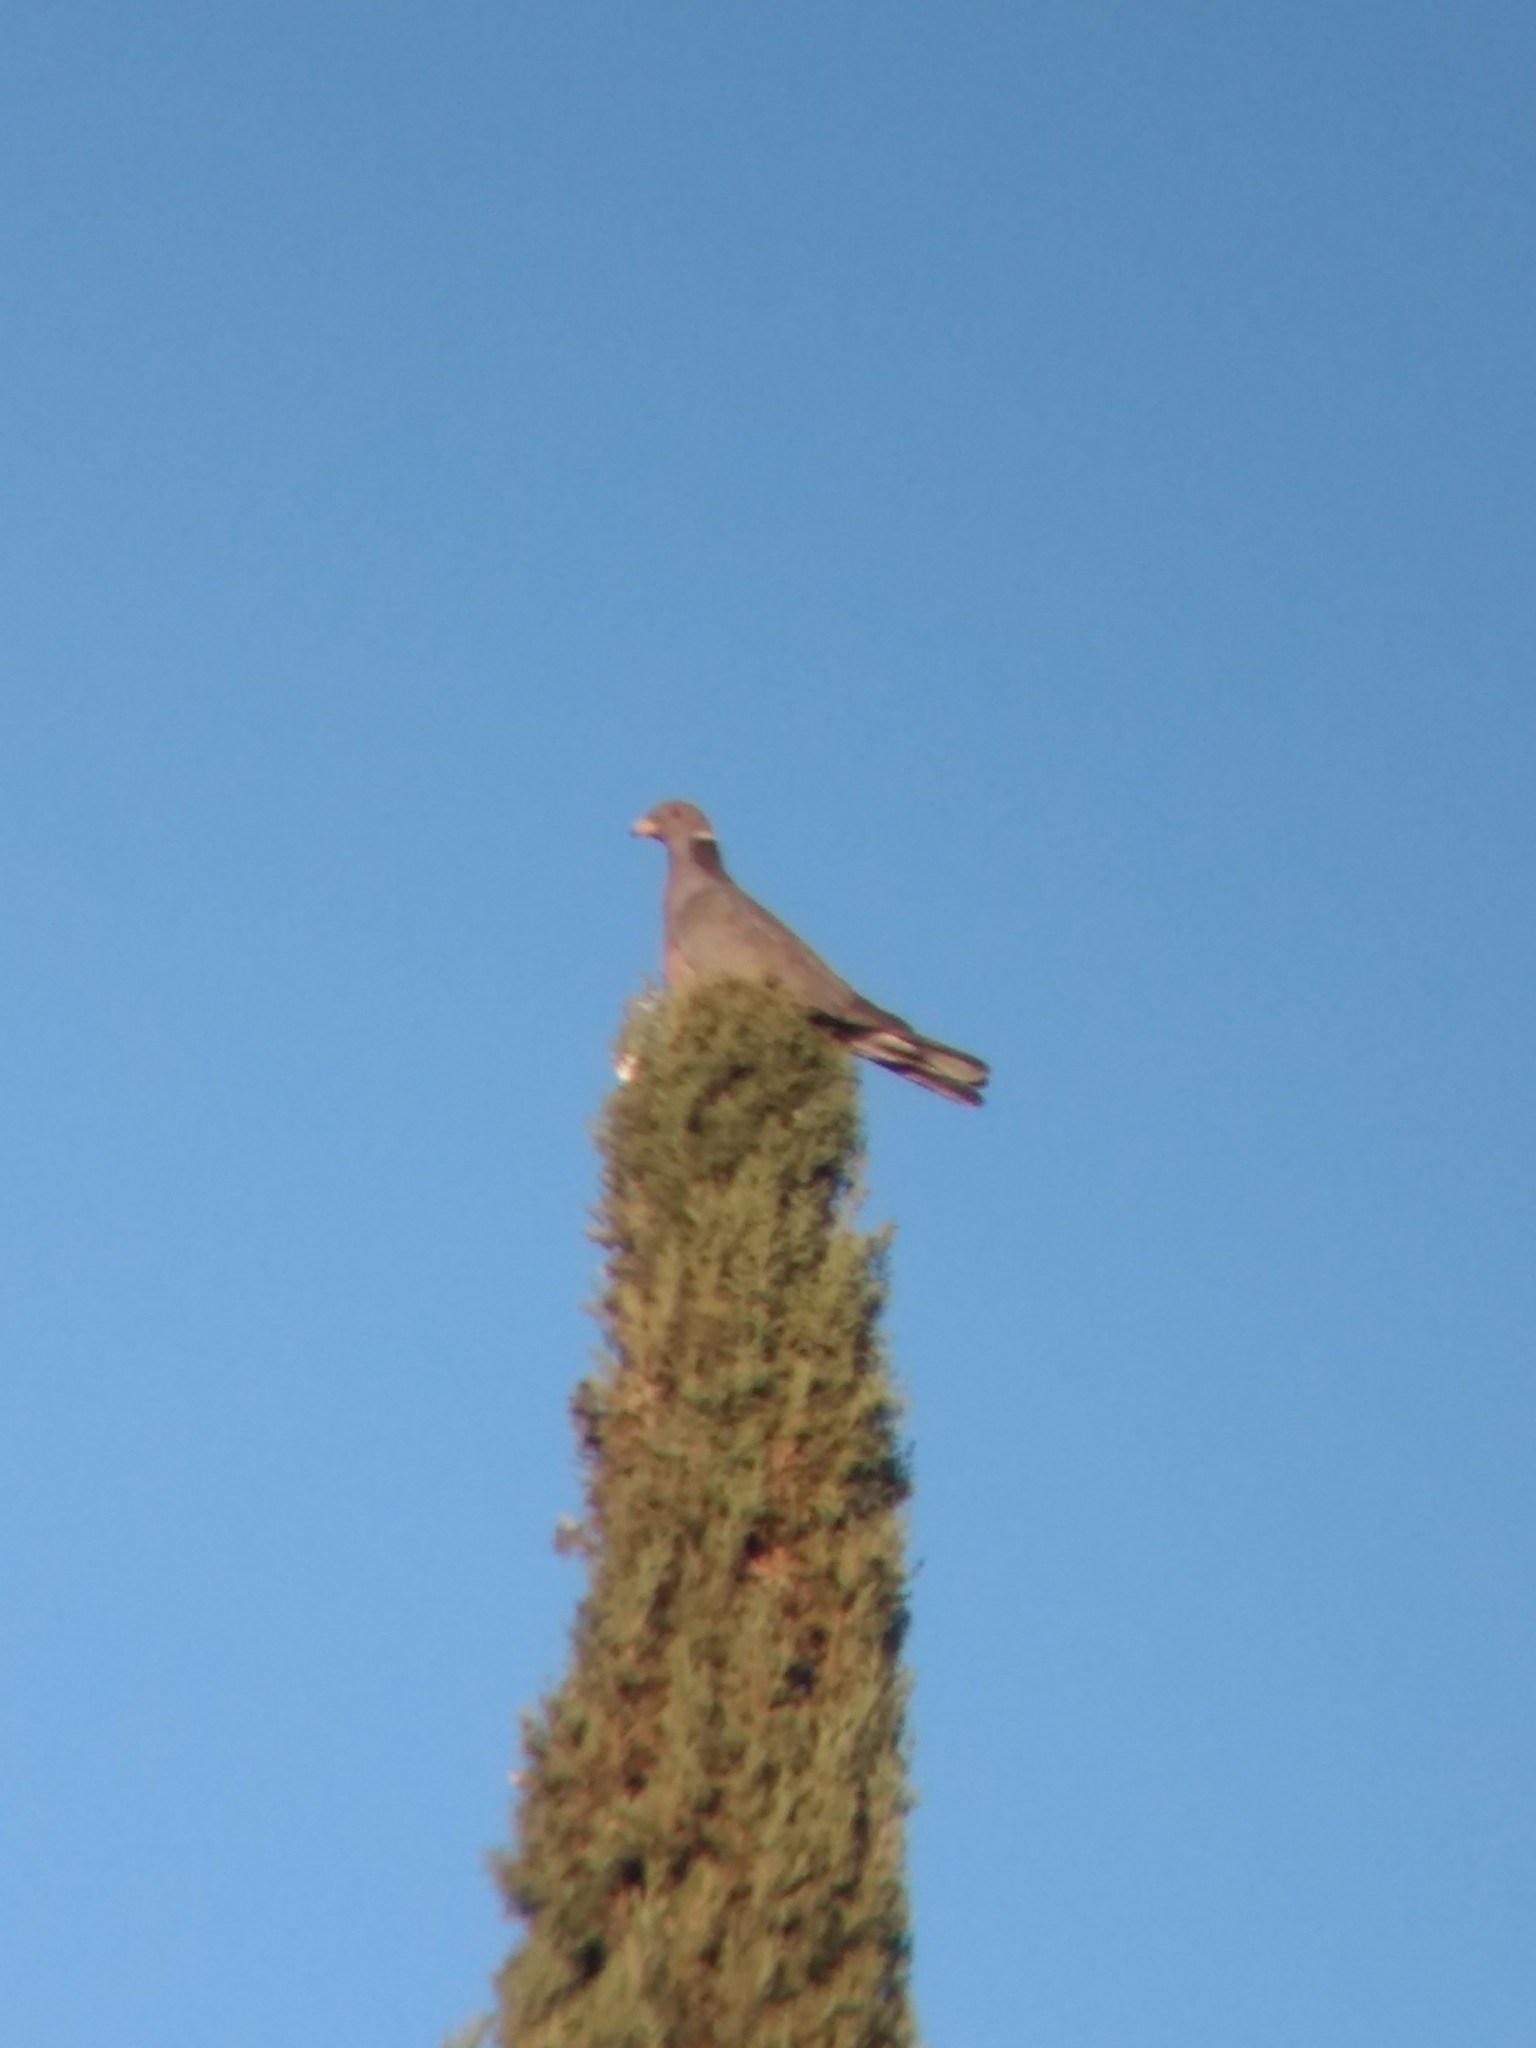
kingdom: Animalia
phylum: Chordata
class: Aves
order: Columbiformes
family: Columbidae
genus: Patagioenas
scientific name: Patagioenas fasciata
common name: Band-tailed pigeon
